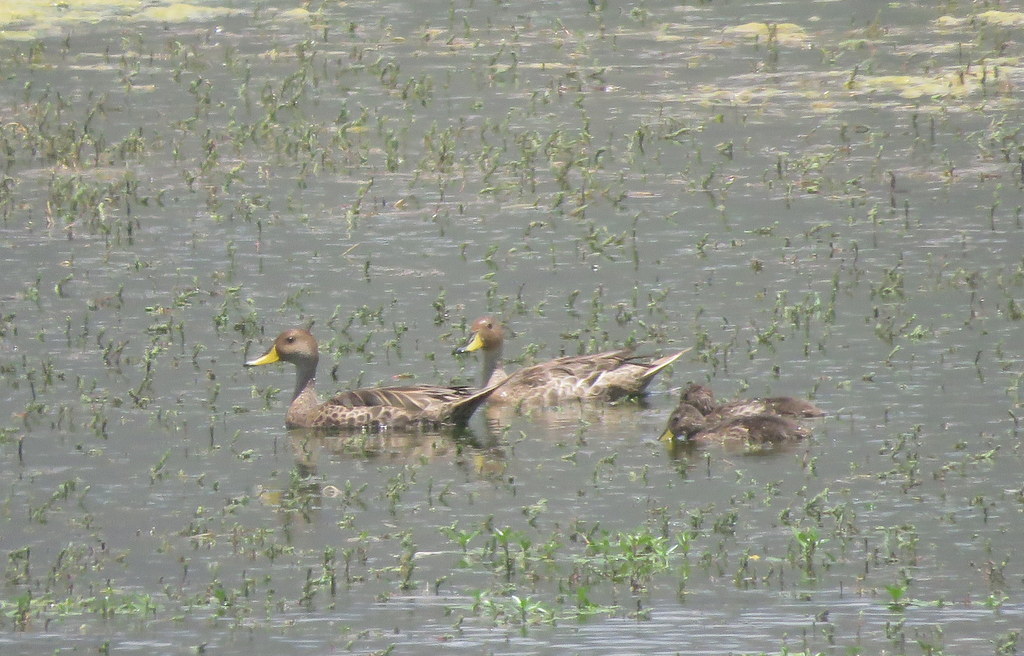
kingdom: Animalia
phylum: Chordata
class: Aves
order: Anseriformes
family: Anatidae
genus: Anas
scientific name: Anas georgica
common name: Yellow-billed pintail
